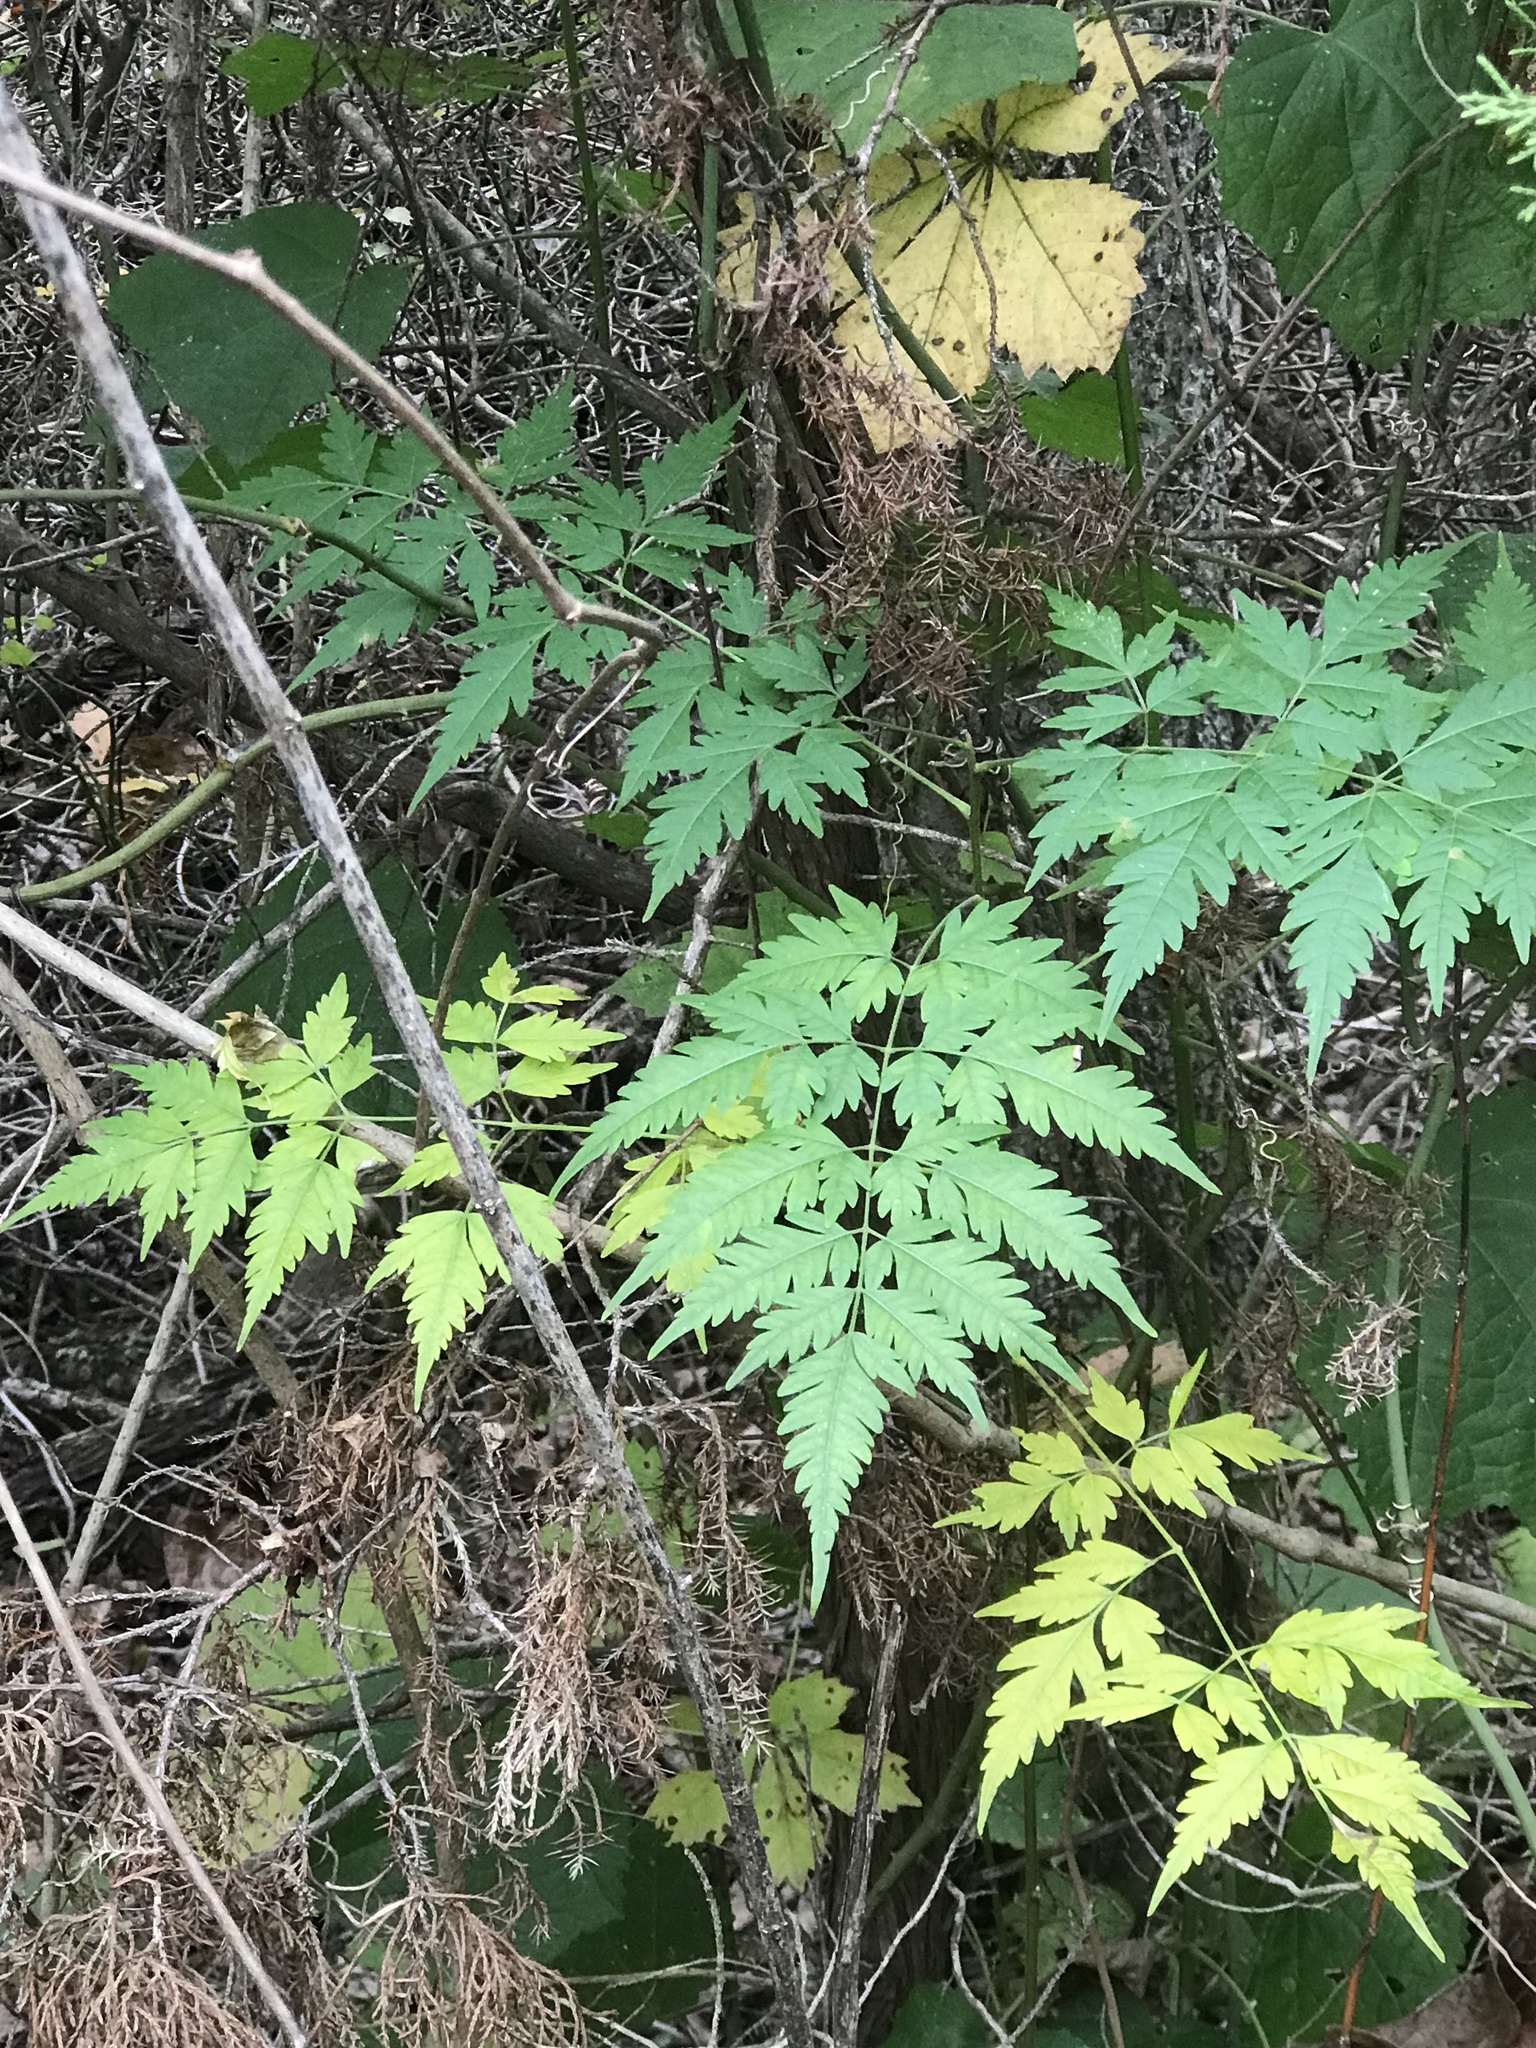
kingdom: Plantae
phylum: Tracheophyta
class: Magnoliopsida
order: Sapindales
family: Meliaceae
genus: Melia
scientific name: Melia azedarach
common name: Chinaberrytree
